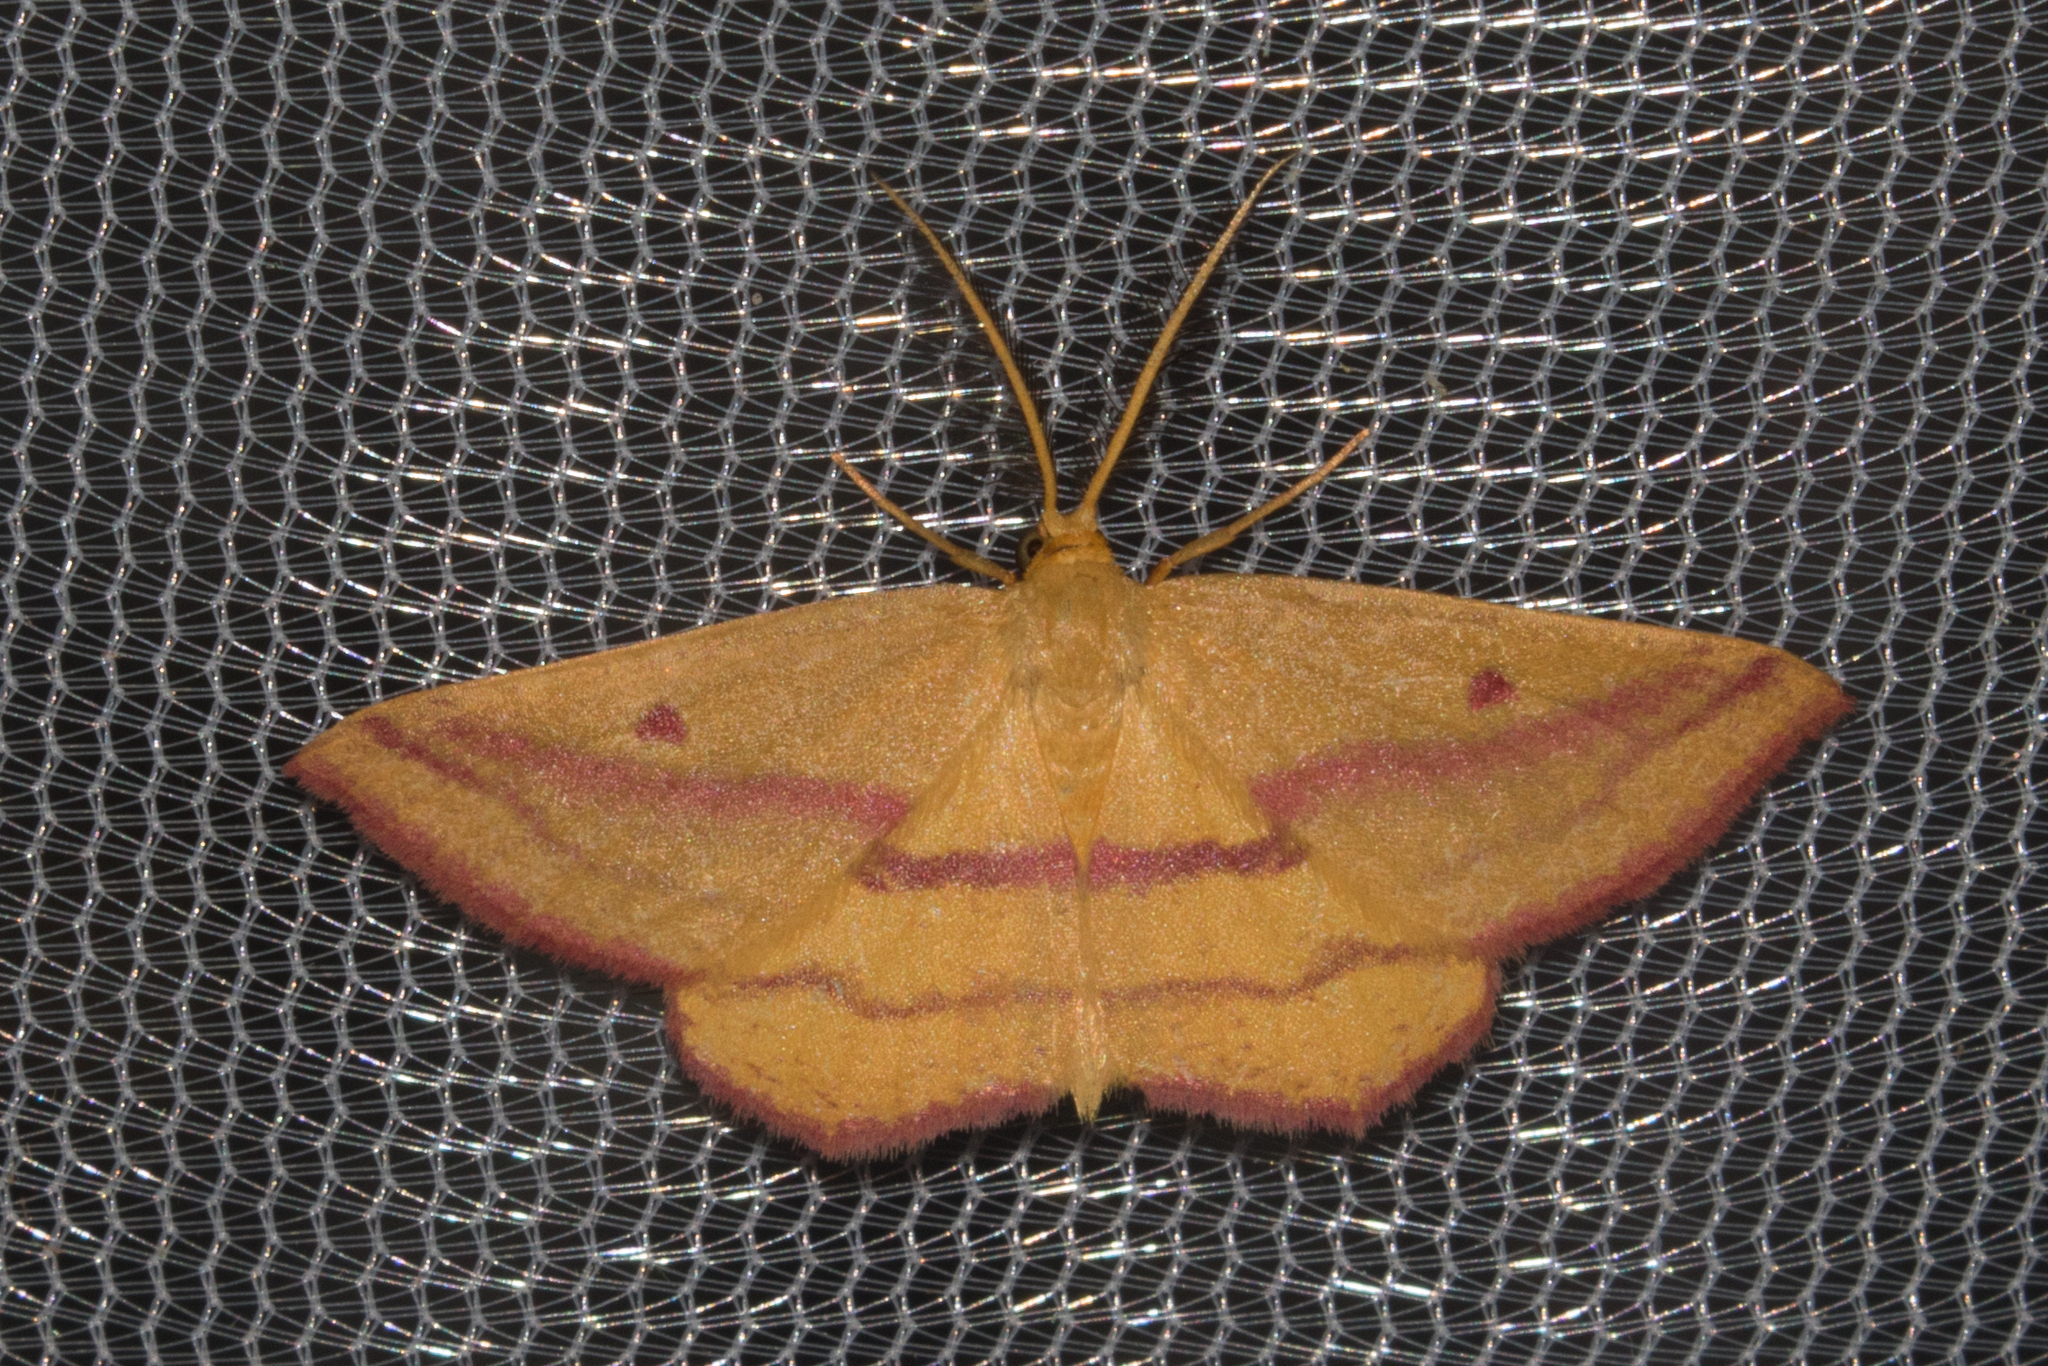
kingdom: Animalia
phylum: Arthropoda
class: Insecta
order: Lepidoptera
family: Geometridae
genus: Haematopis
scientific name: Haematopis grataria
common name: Chickweed geometer
